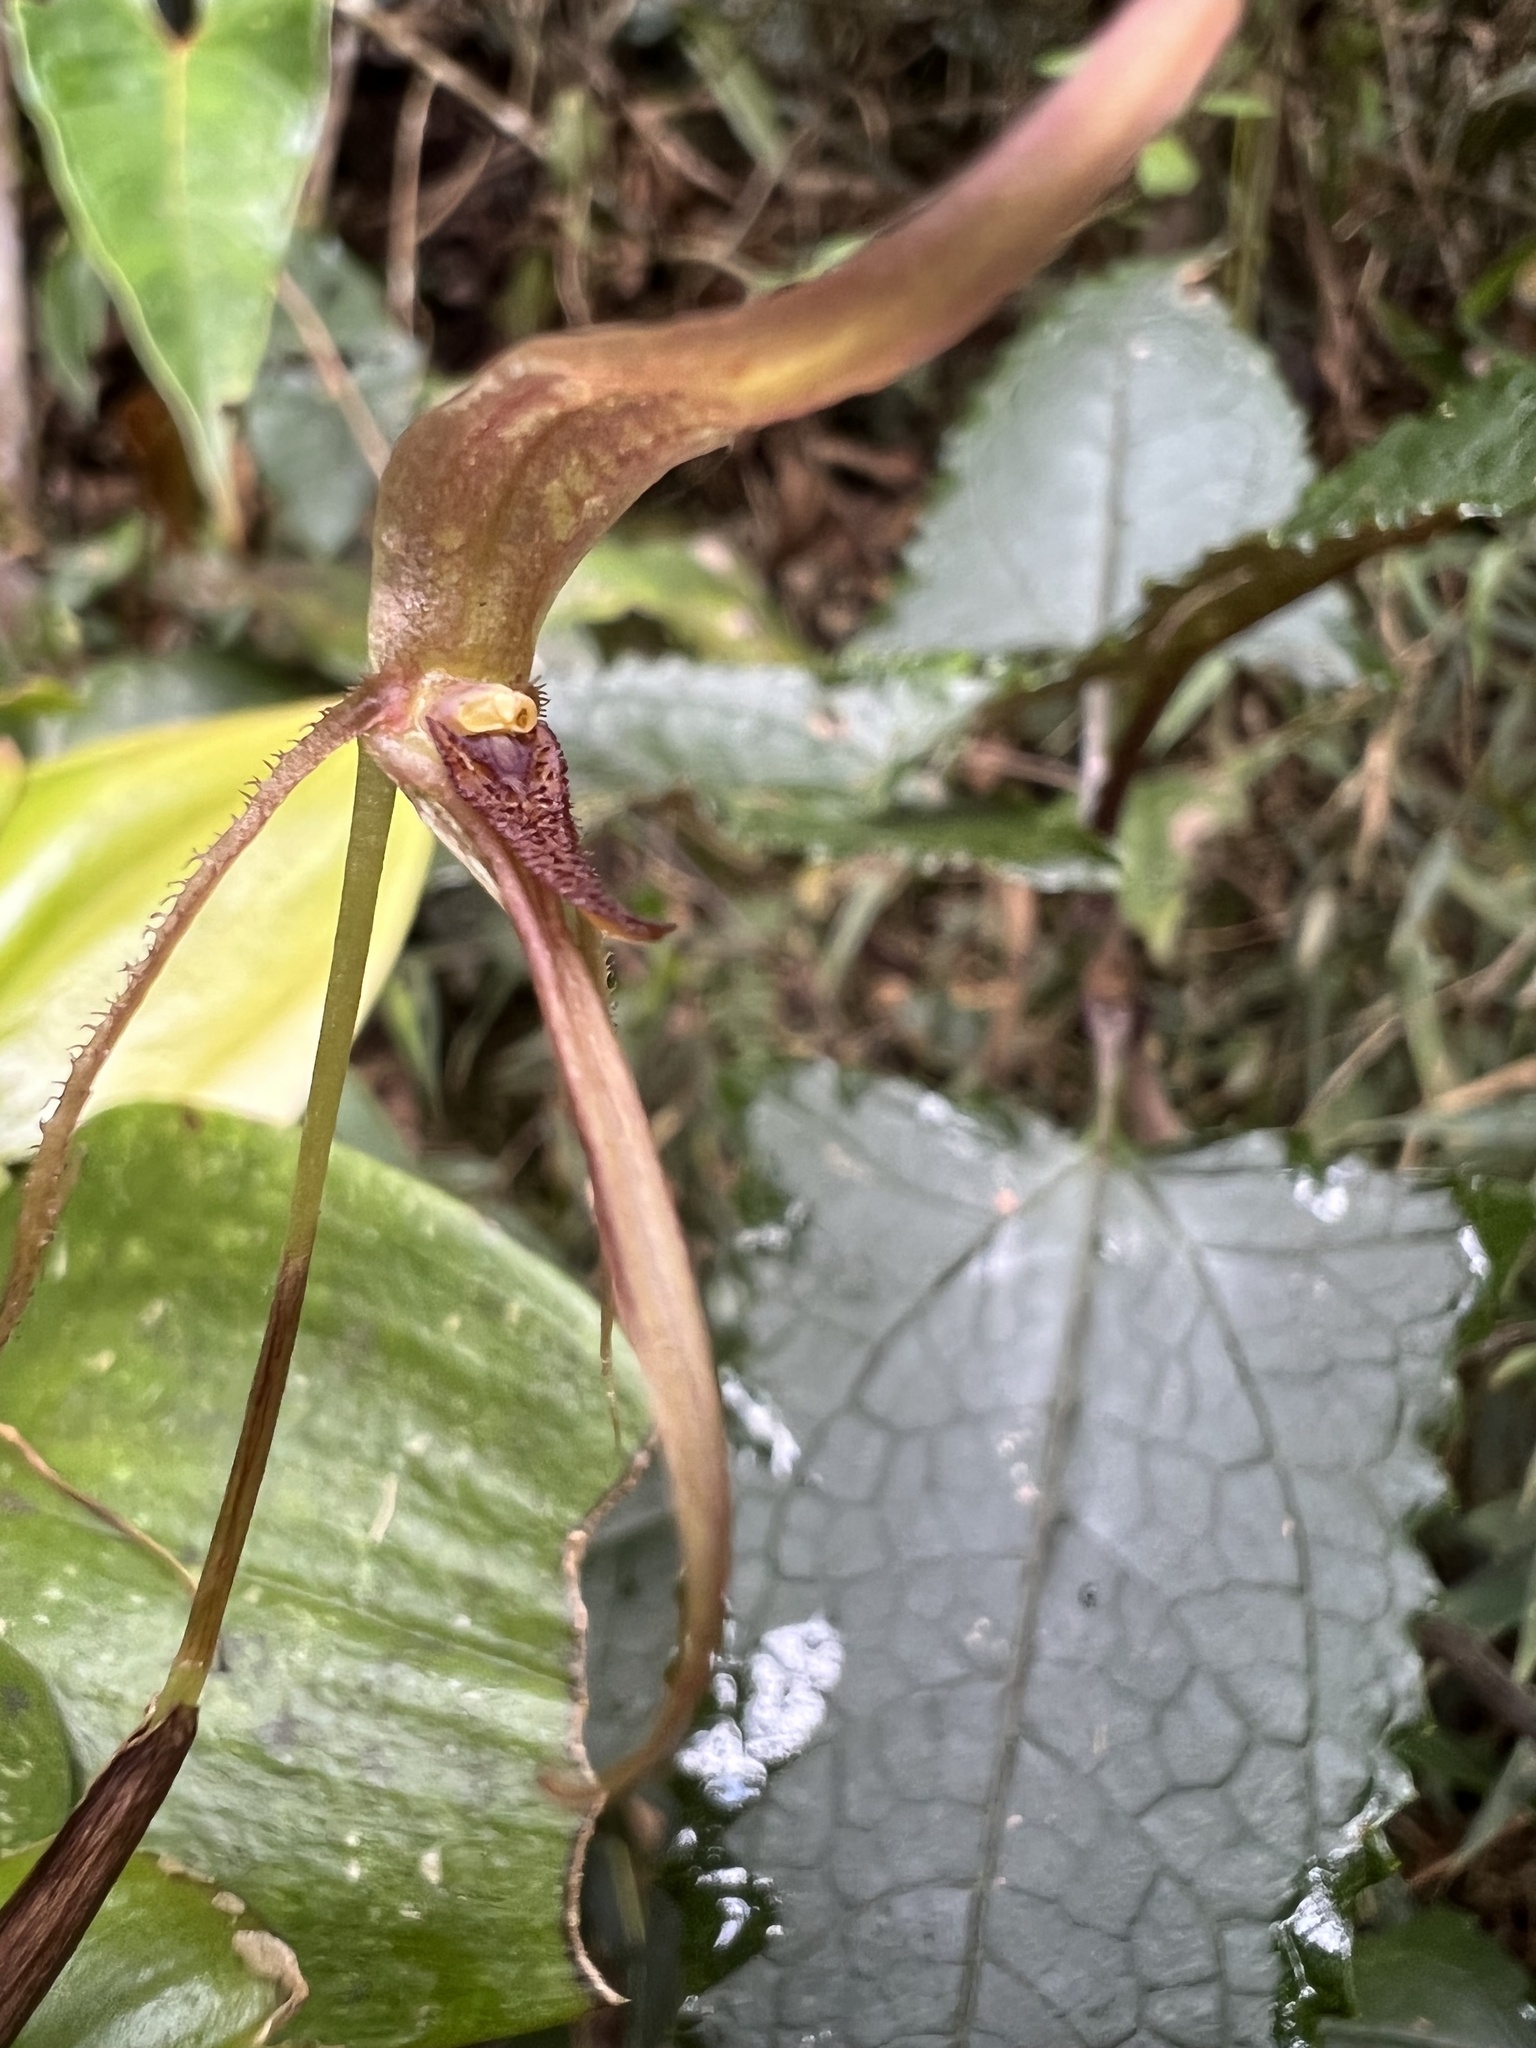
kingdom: Plantae
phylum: Tracheophyta
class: Liliopsida
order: Asparagales
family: Orchidaceae
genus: Pleurothallis
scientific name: Pleurothallis killipii
